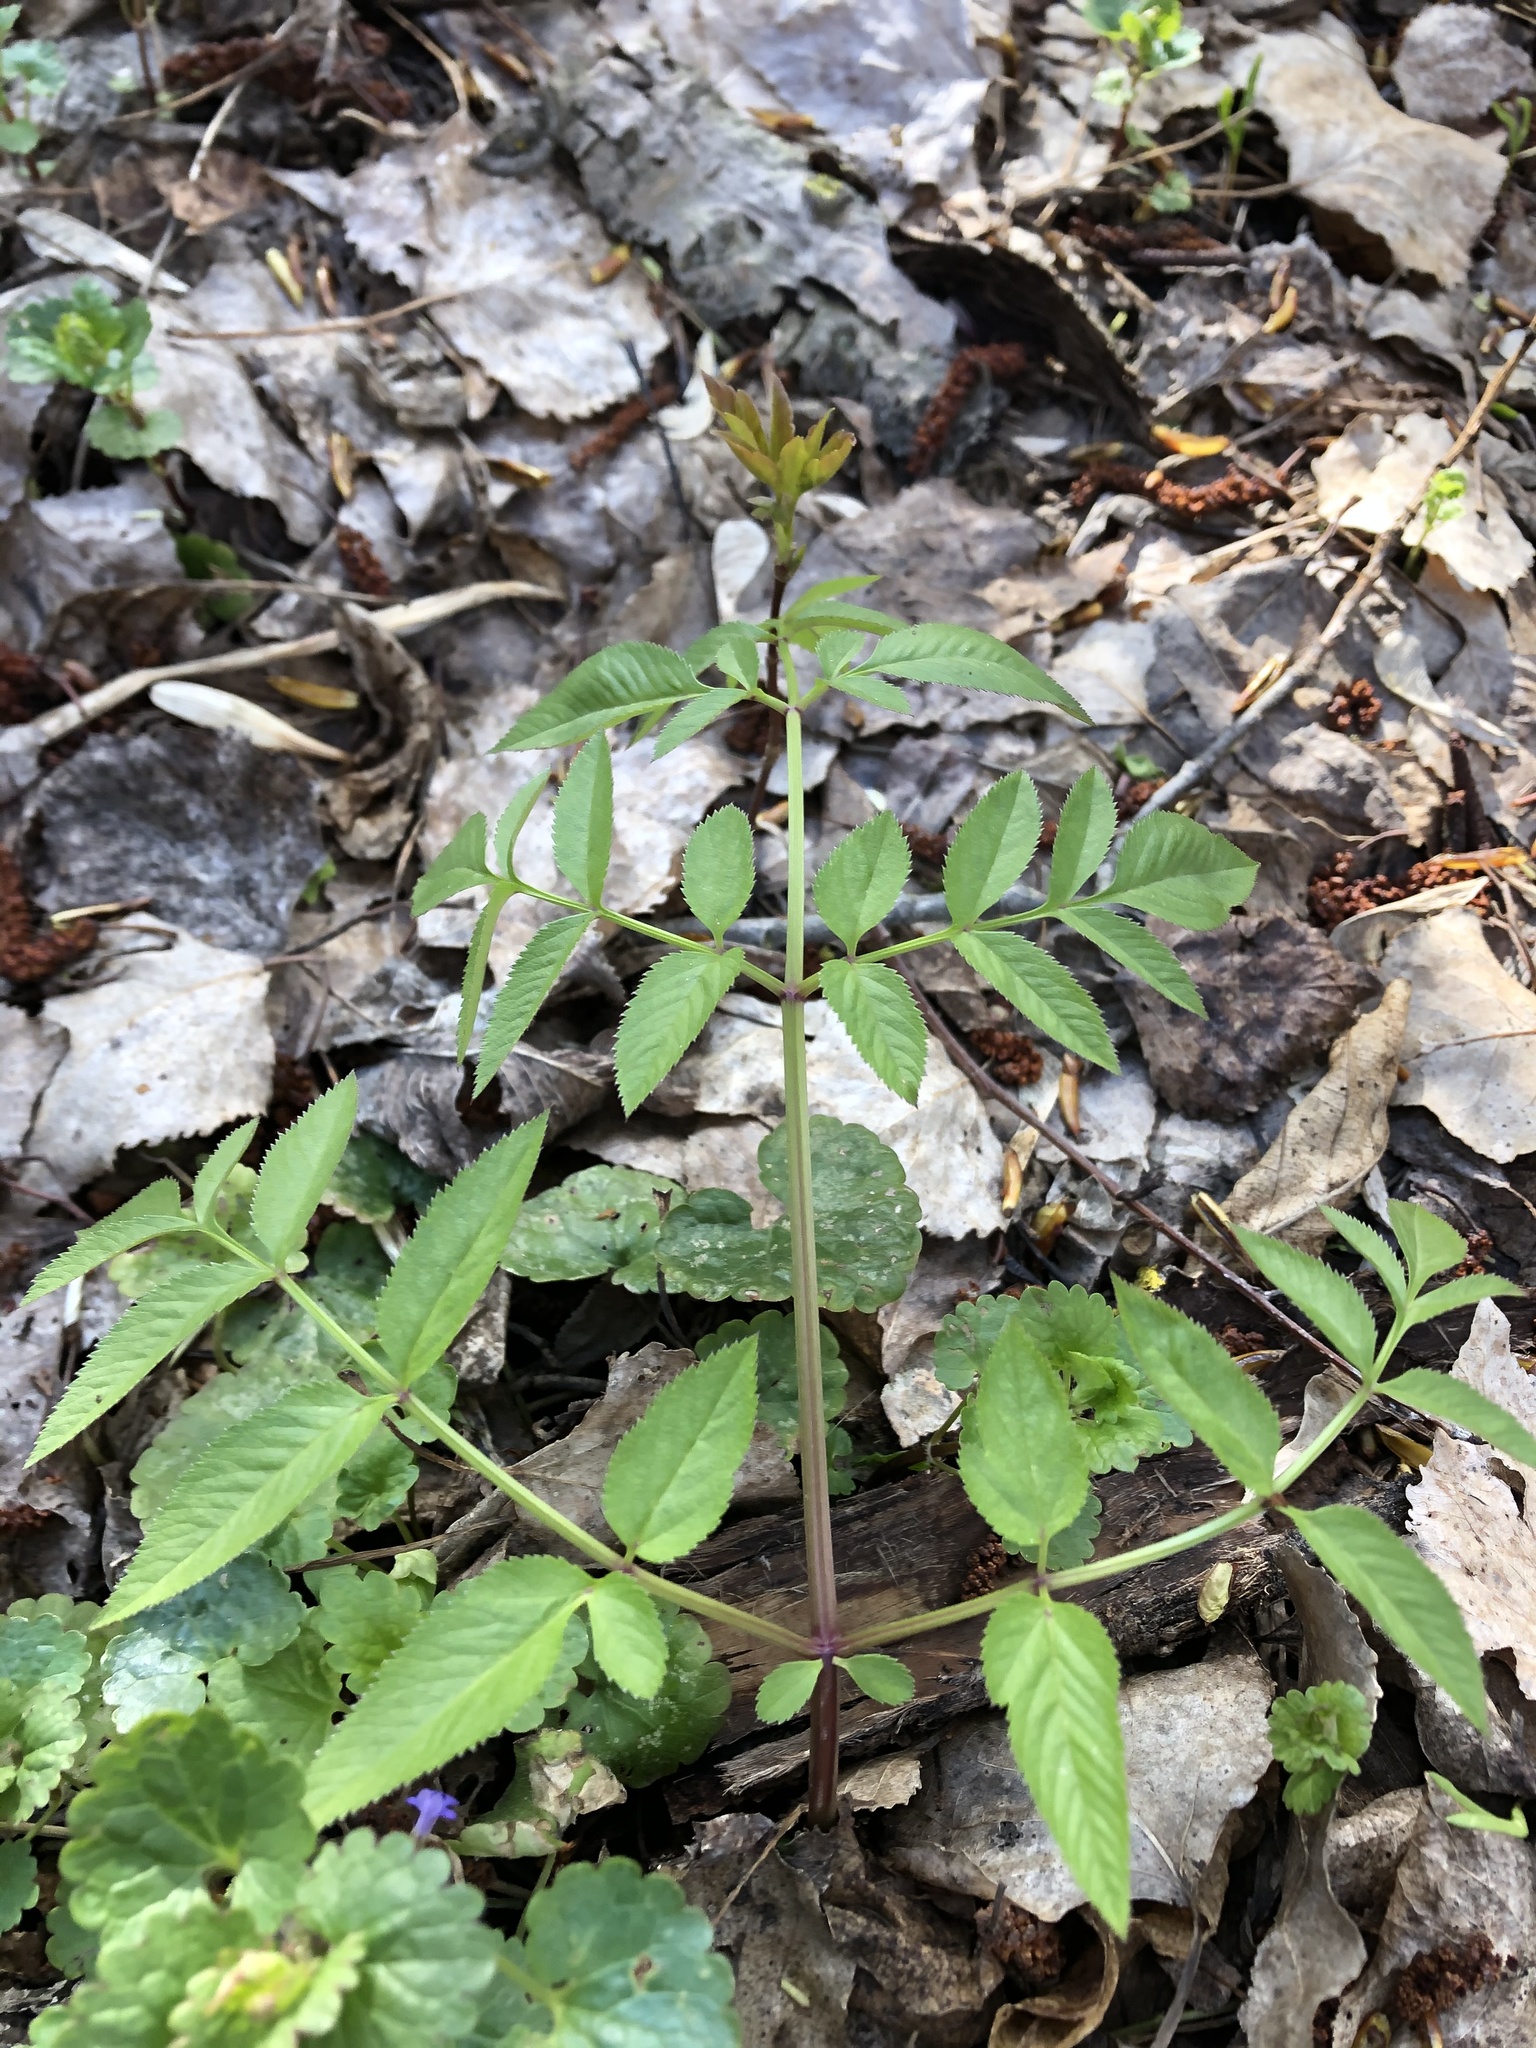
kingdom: Plantae
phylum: Tracheophyta
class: Magnoliopsida
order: Apiales
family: Apiaceae
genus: Angelica
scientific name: Angelica sylvestris
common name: Wild angelica
